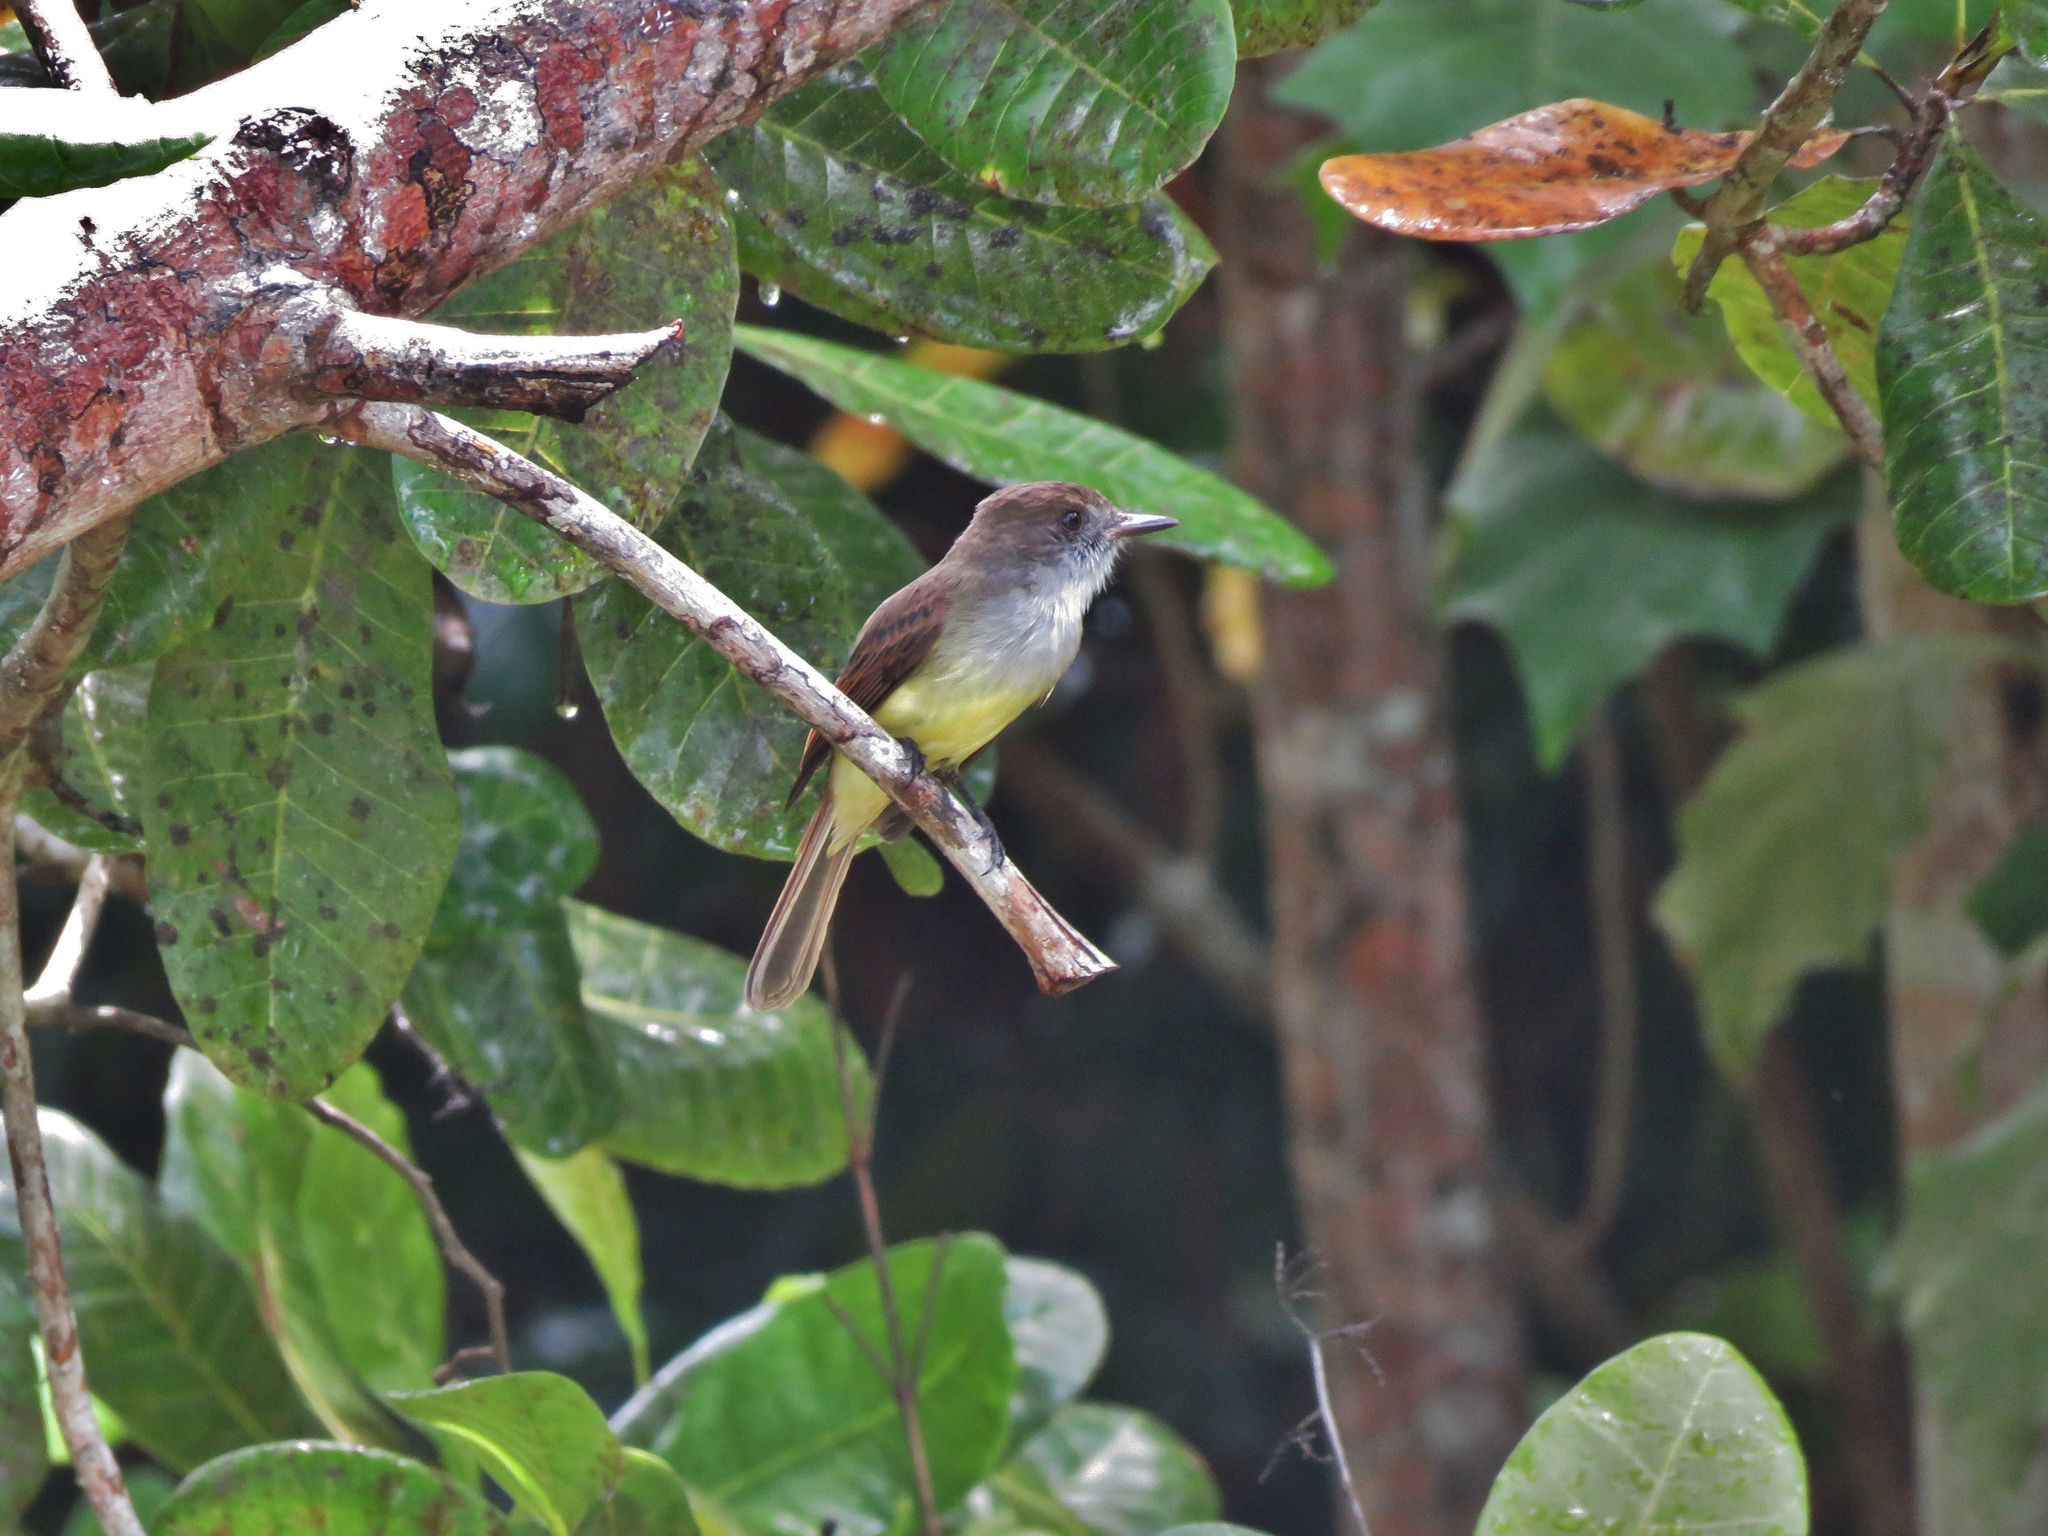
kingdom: Animalia
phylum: Chordata
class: Aves
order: Passeriformes
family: Tyrannidae
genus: Myiarchus
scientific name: Myiarchus yucatanensis
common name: Yucatan flycatcher
